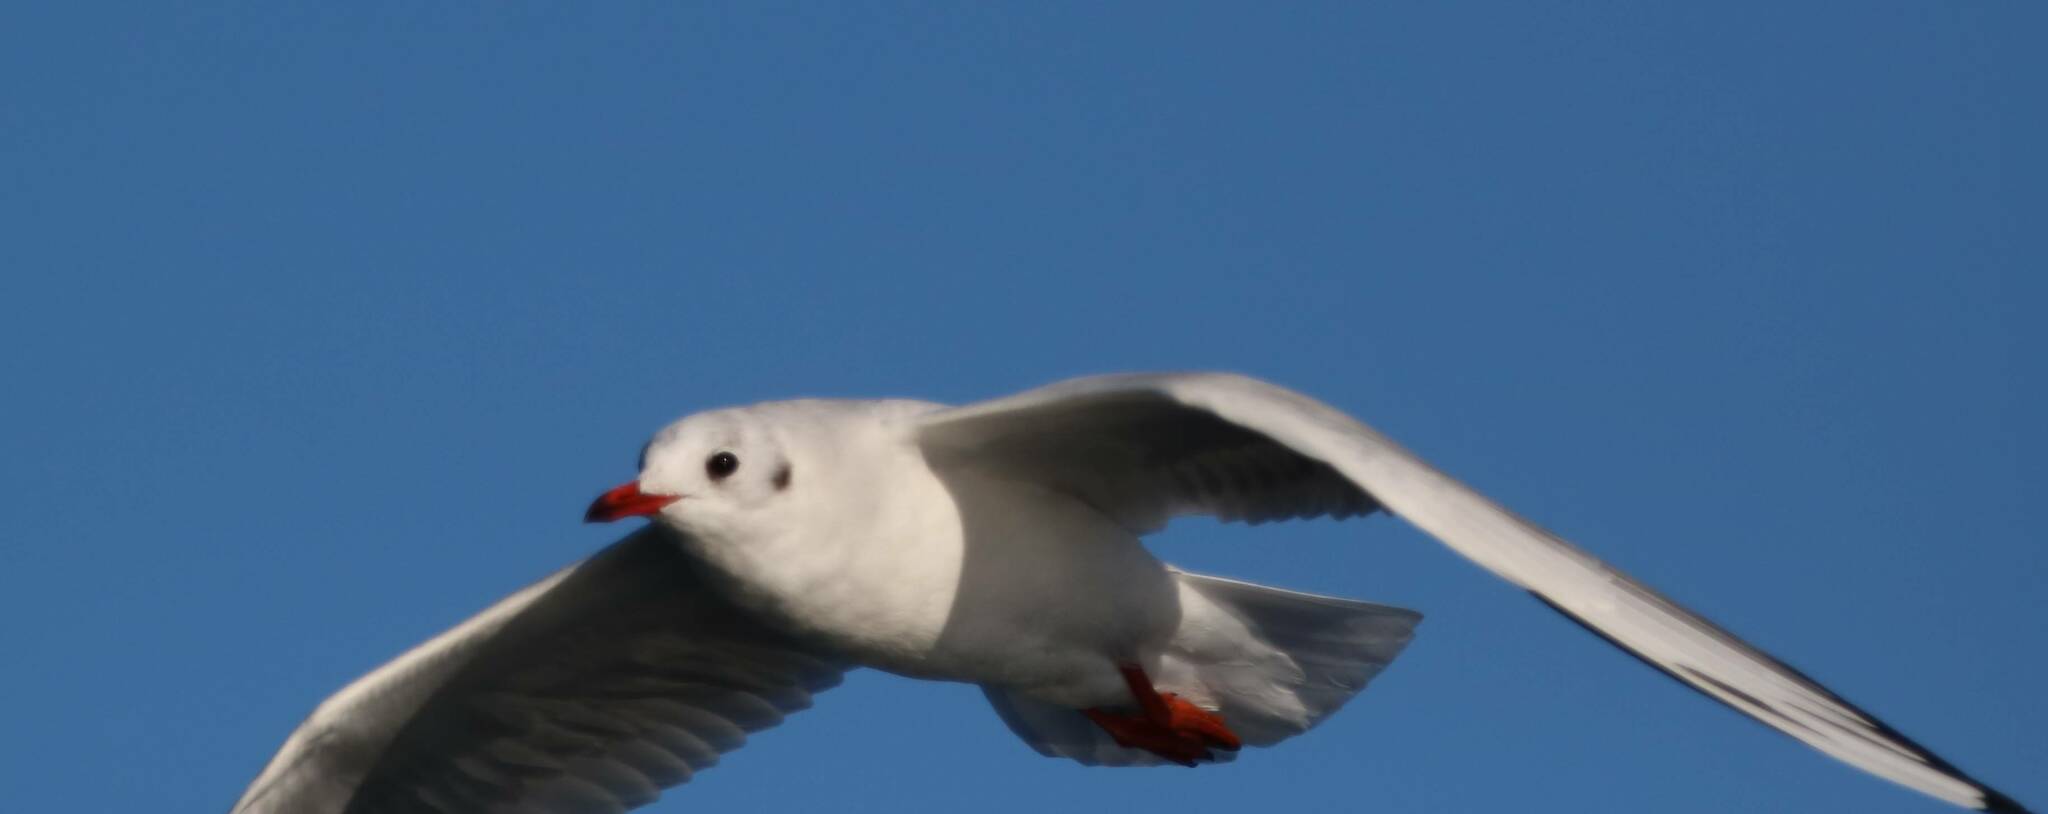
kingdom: Animalia
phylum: Chordata
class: Aves
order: Charadriiformes
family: Laridae
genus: Chroicocephalus
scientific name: Chroicocephalus ridibundus
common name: Black-headed gull
